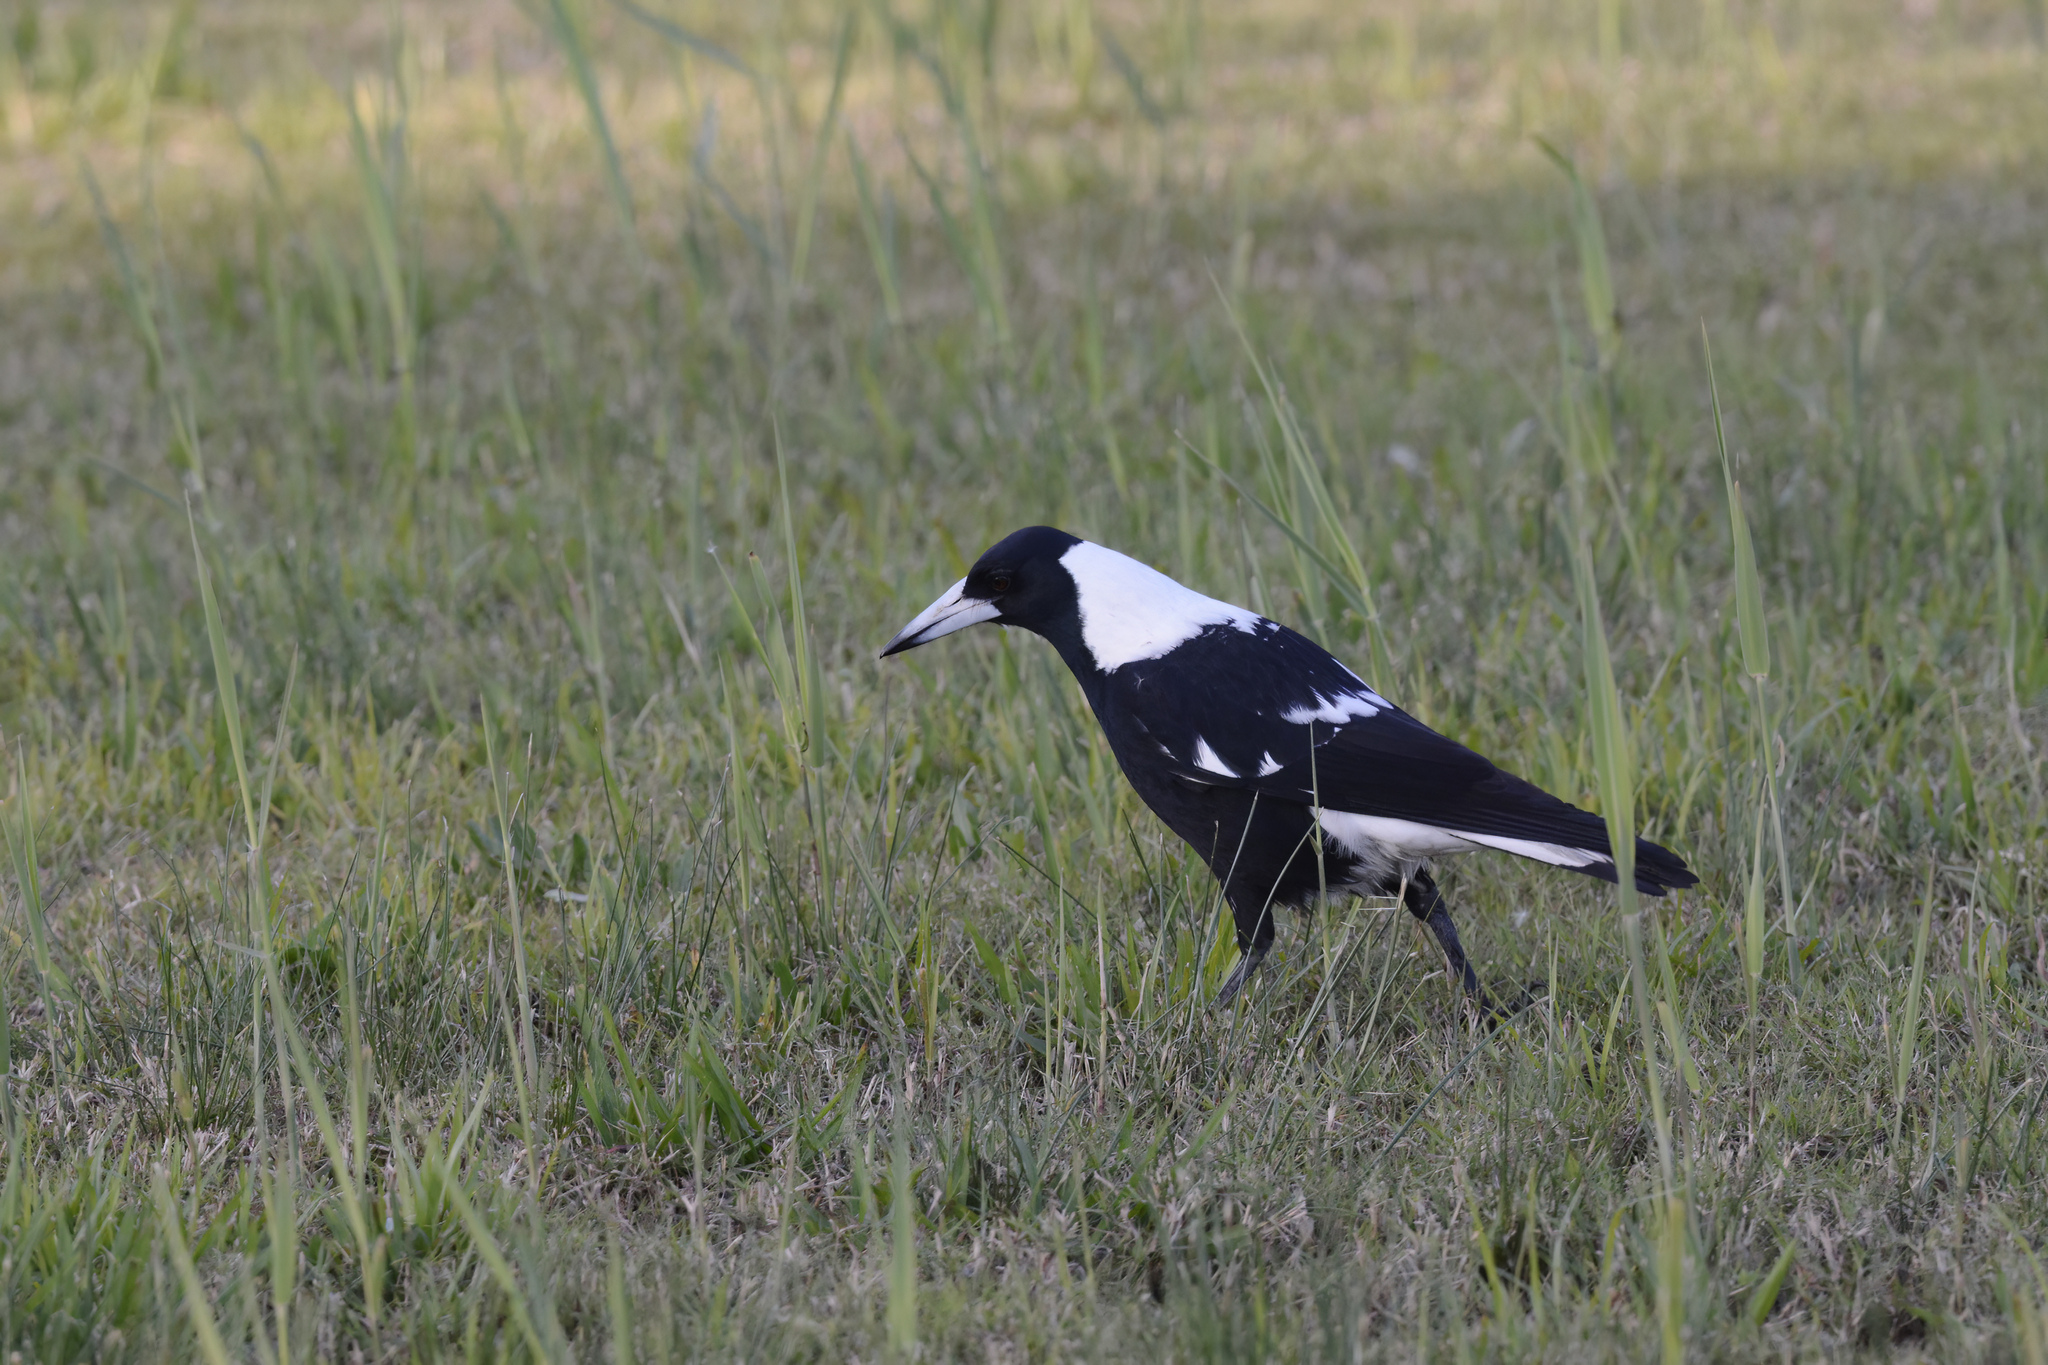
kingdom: Animalia
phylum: Chordata
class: Aves
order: Passeriformes
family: Cracticidae
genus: Gymnorhina
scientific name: Gymnorhina tibicen
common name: Australian magpie
